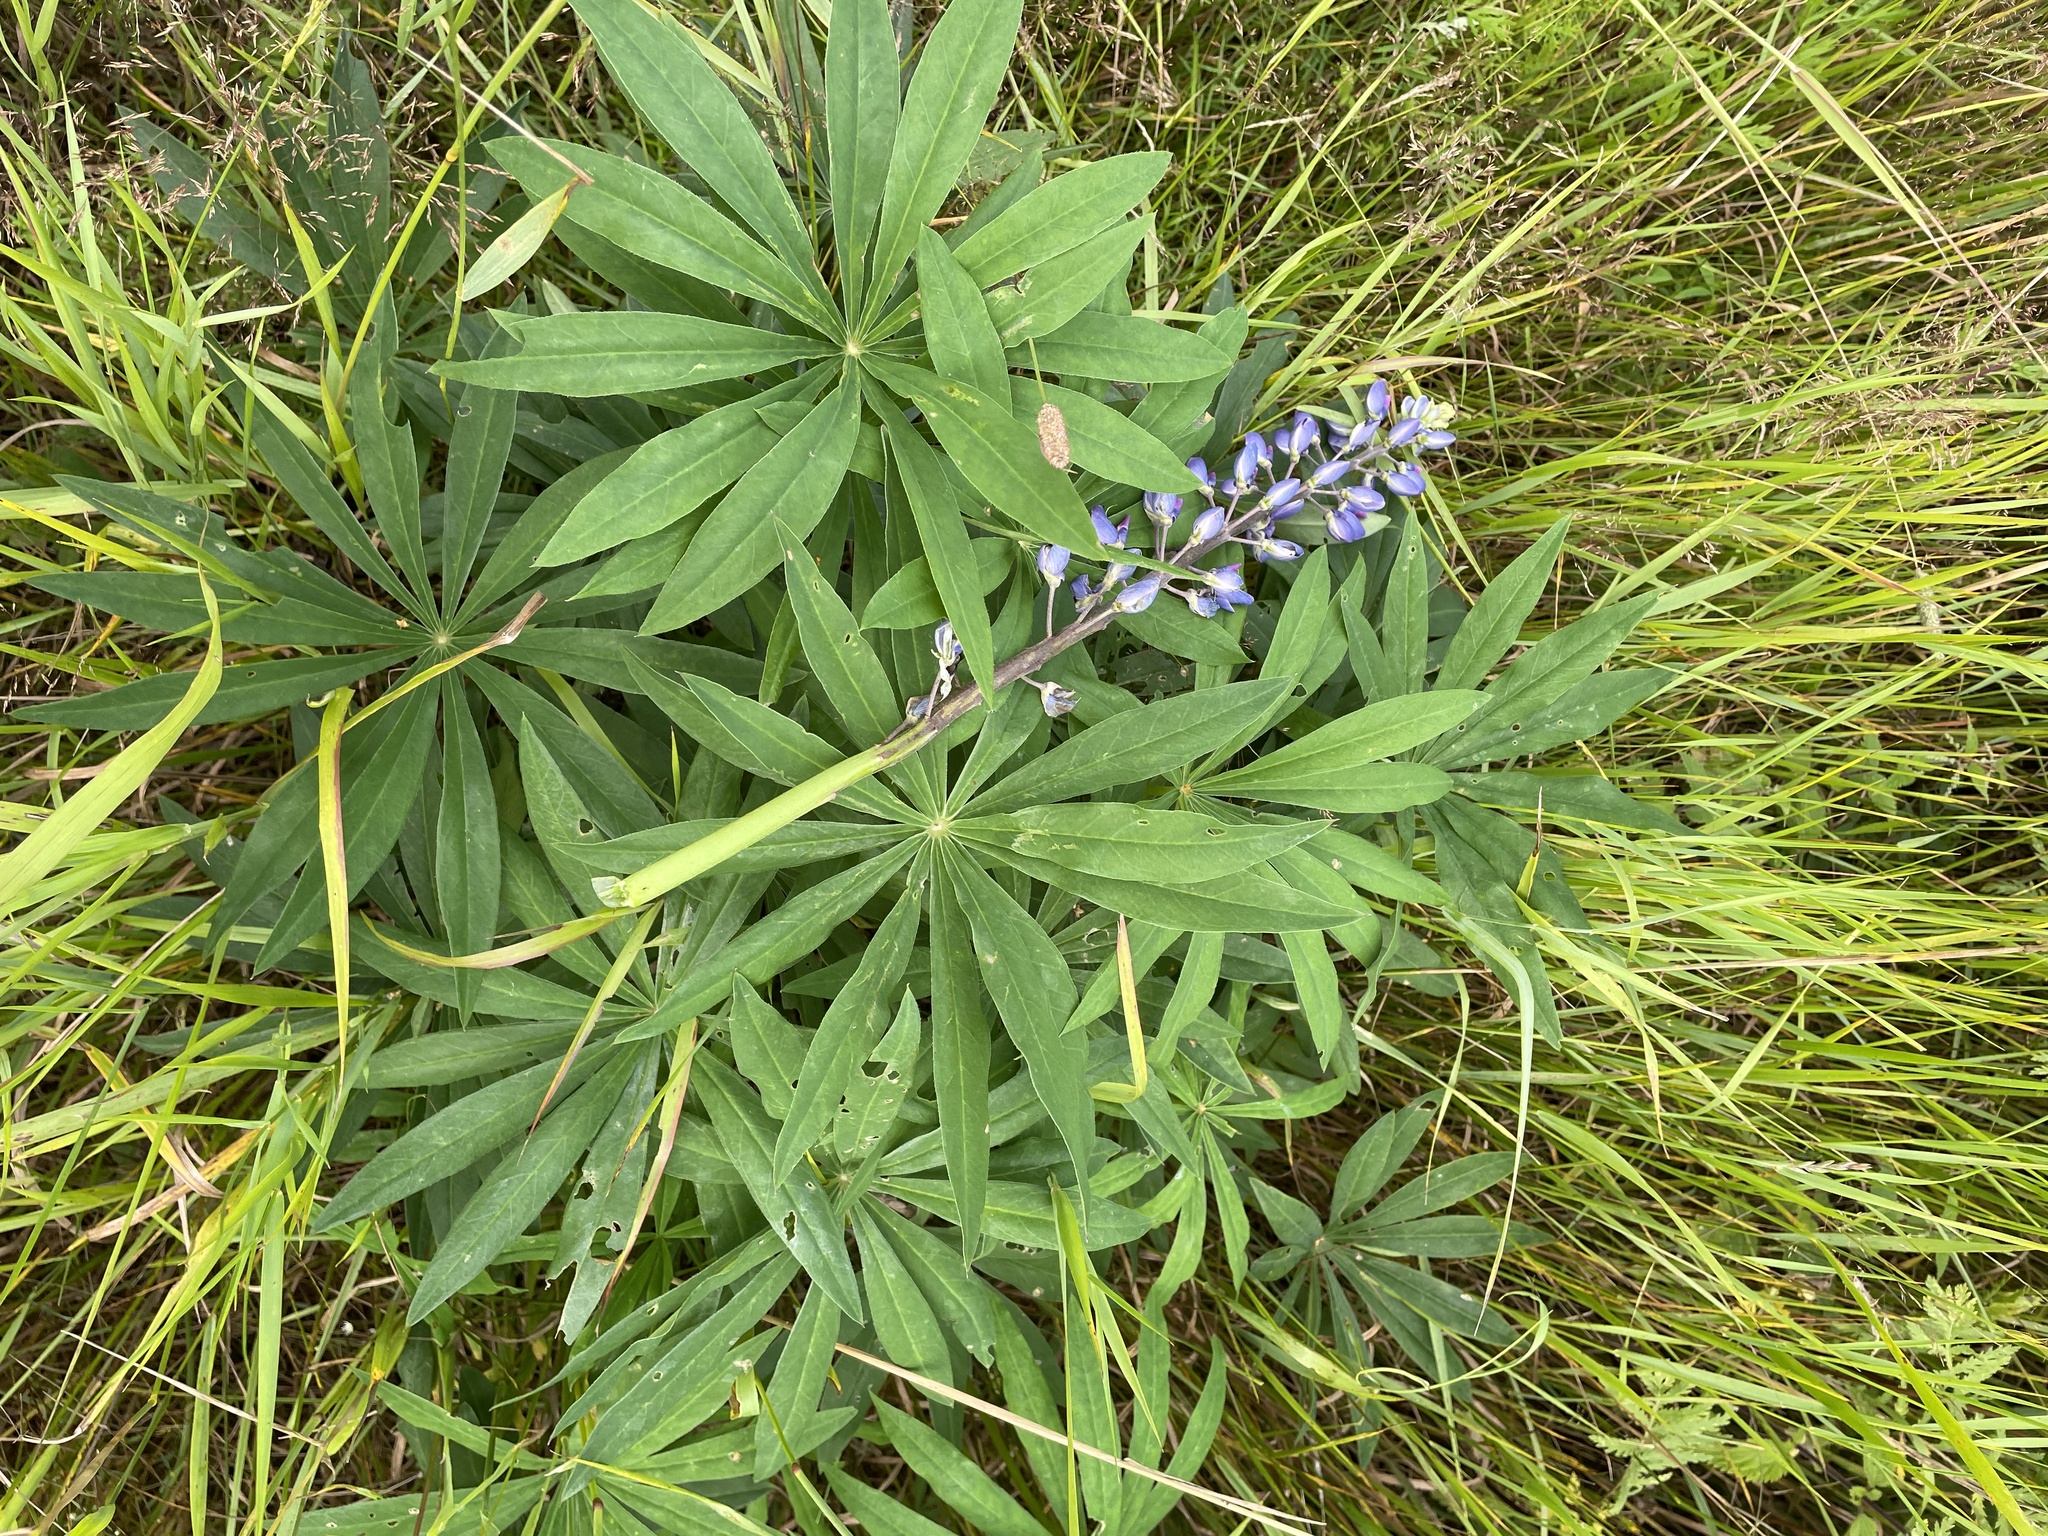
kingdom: Plantae
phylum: Tracheophyta
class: Magnoliopsida
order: Fabales
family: Fabaceae
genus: Lupinus
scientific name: Lupinus polyphyllus
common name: Garden lupin
